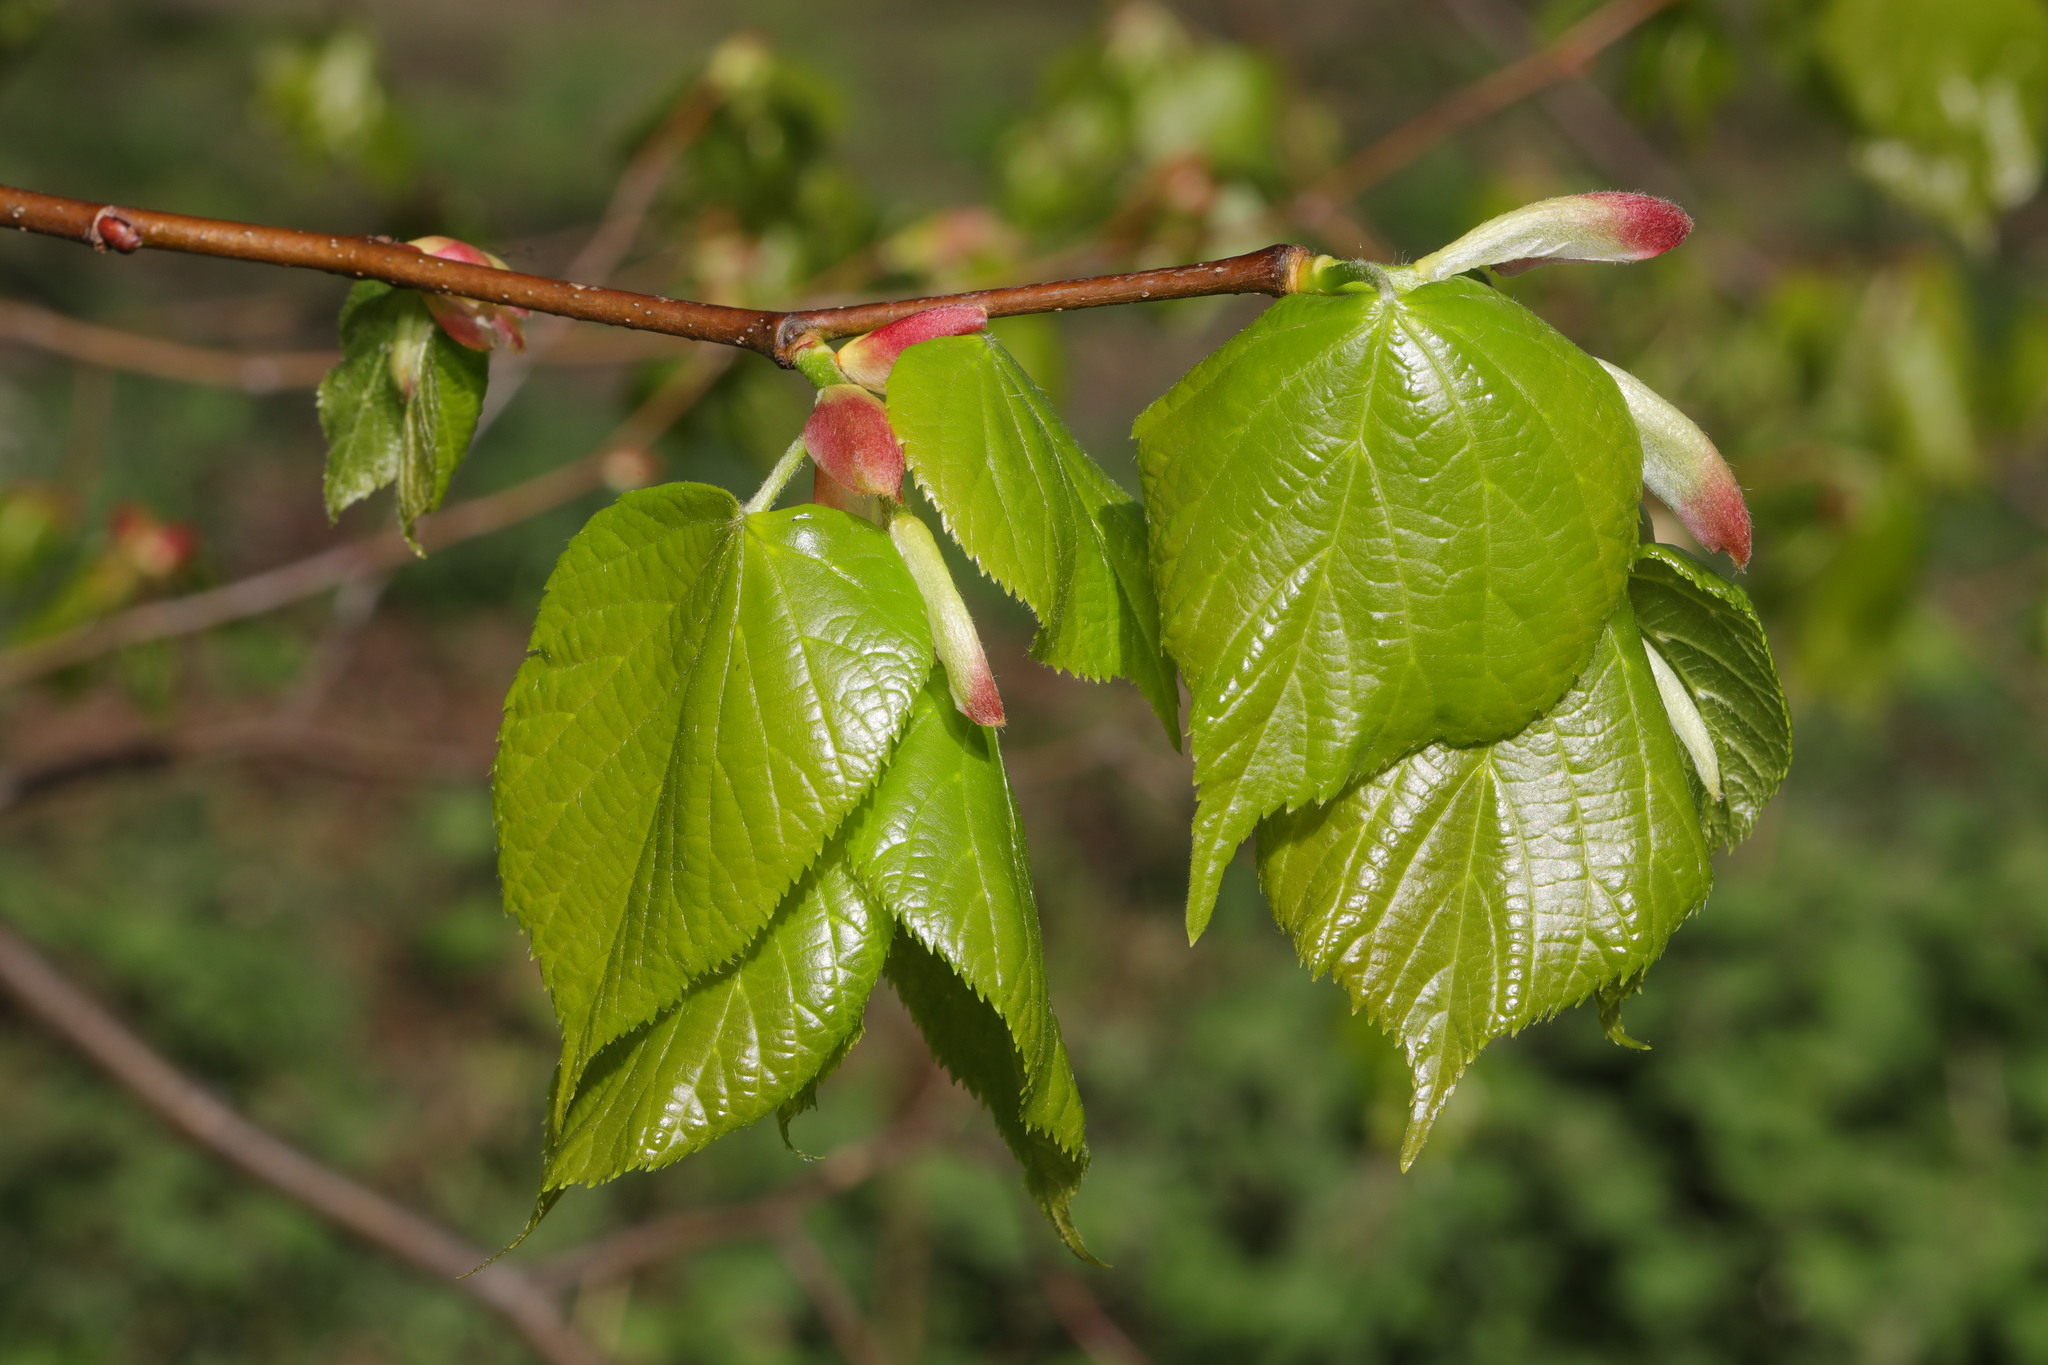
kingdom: Plantae
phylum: Tracheophyta
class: Magnoliopsida
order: Malvales
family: Malvaceae
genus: Tilia
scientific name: Tilia europaea
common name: European linden
